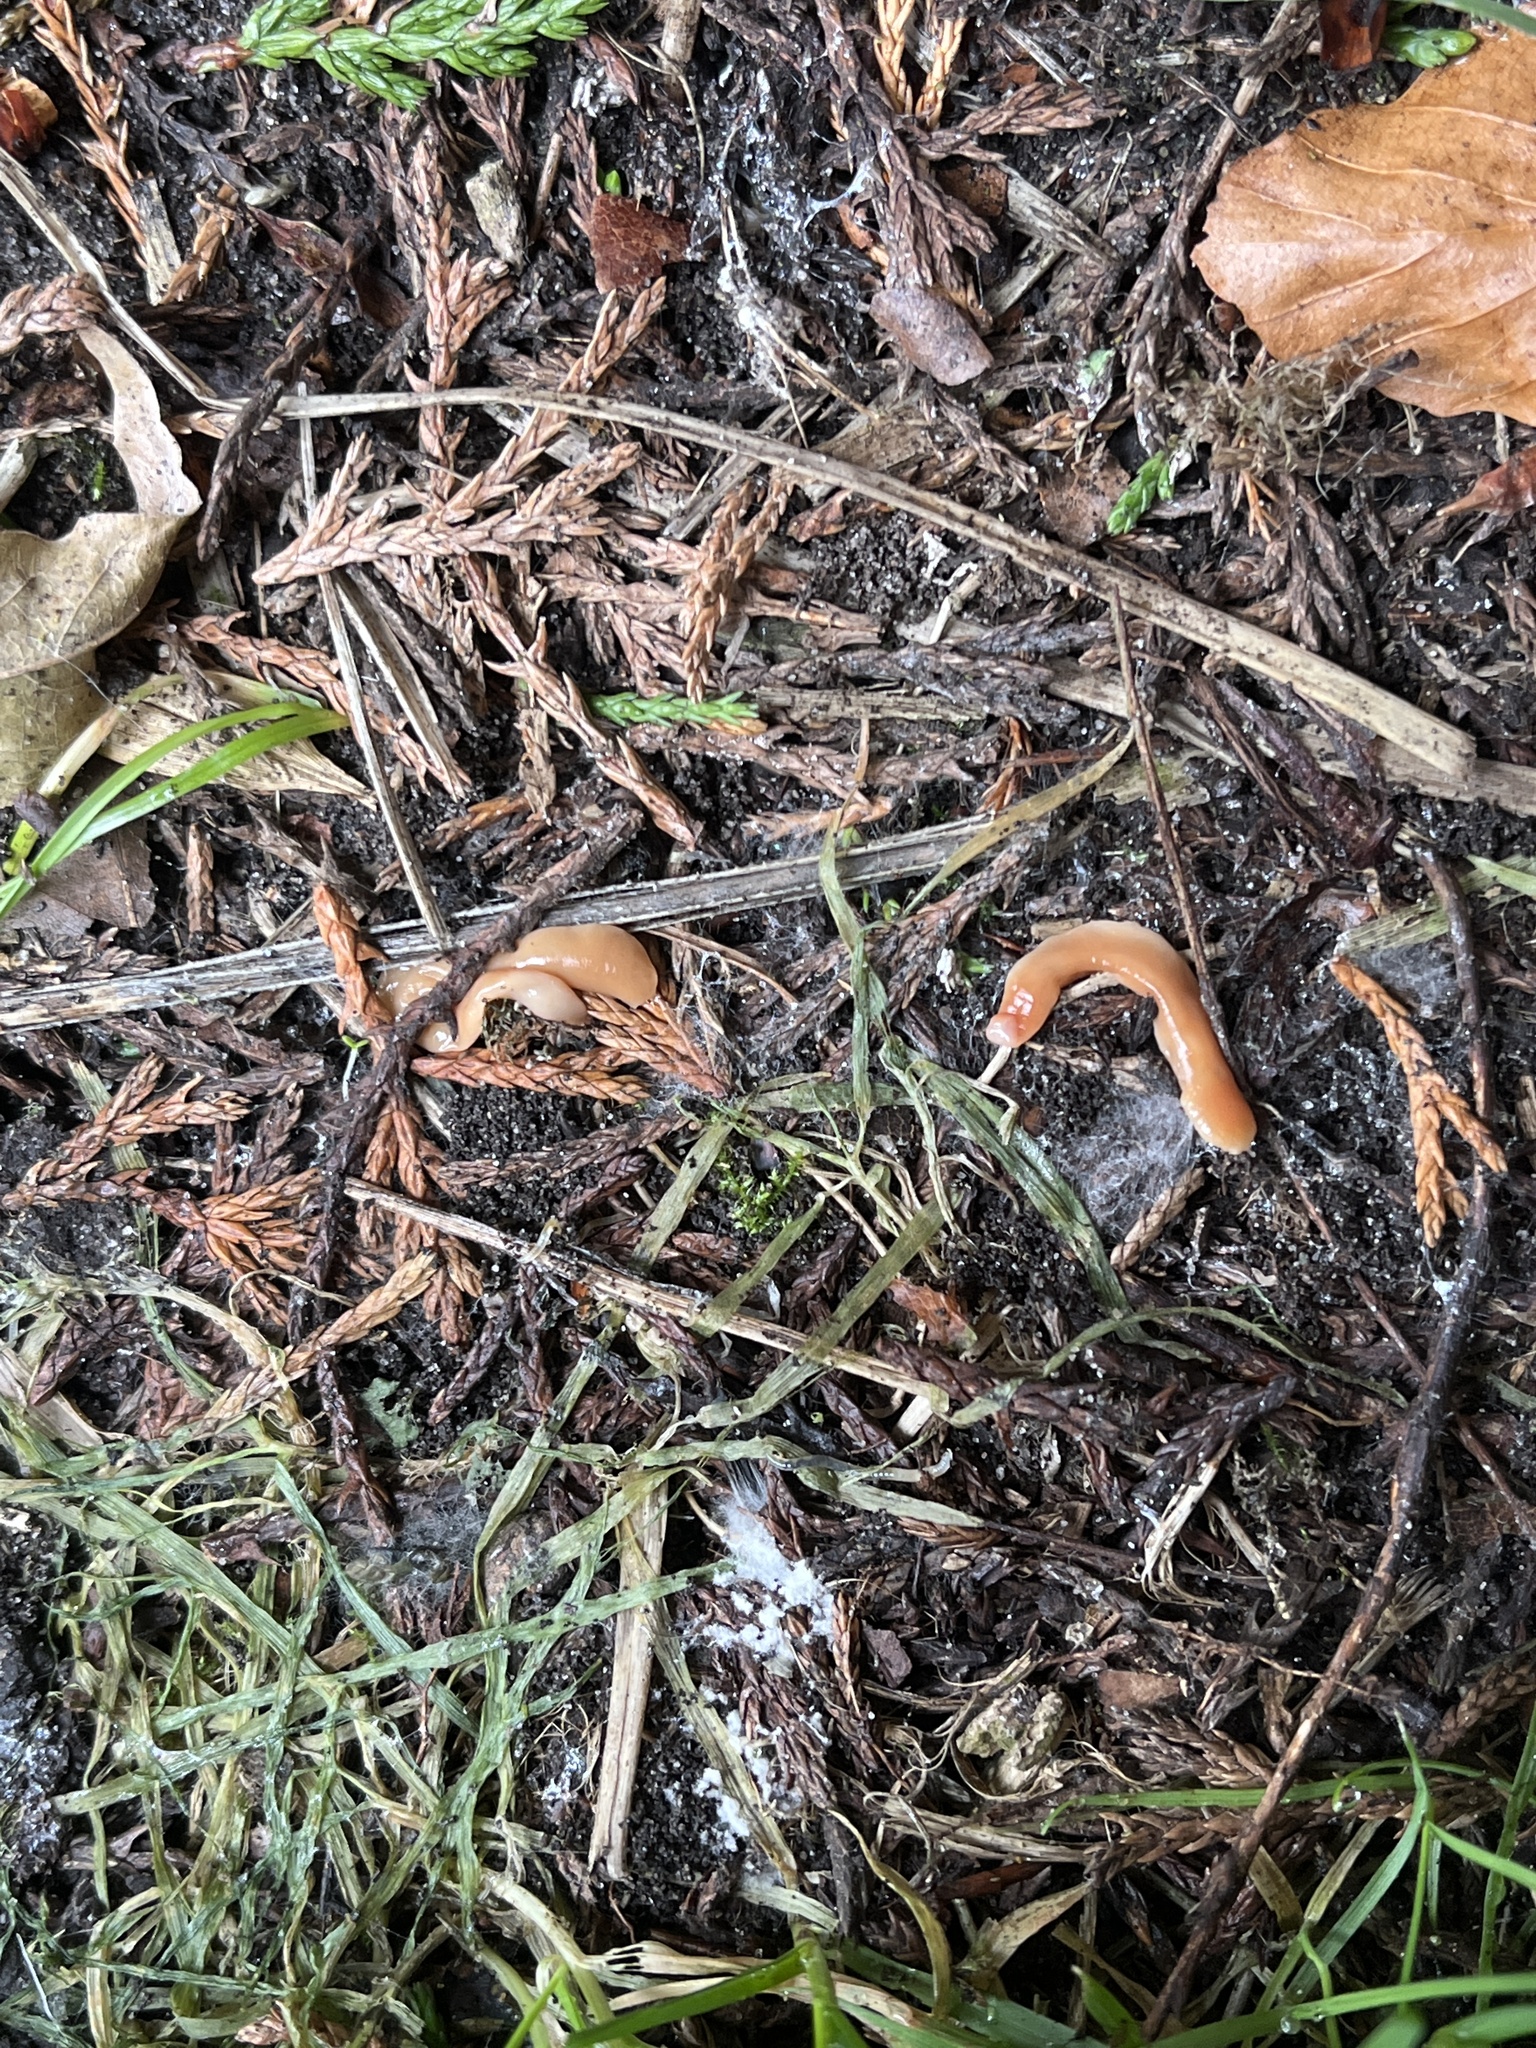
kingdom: Animalia
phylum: Platyhelminthes
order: Tricladida
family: Geoplanidae
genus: Australoplana
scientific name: Australoplana sanguinea
